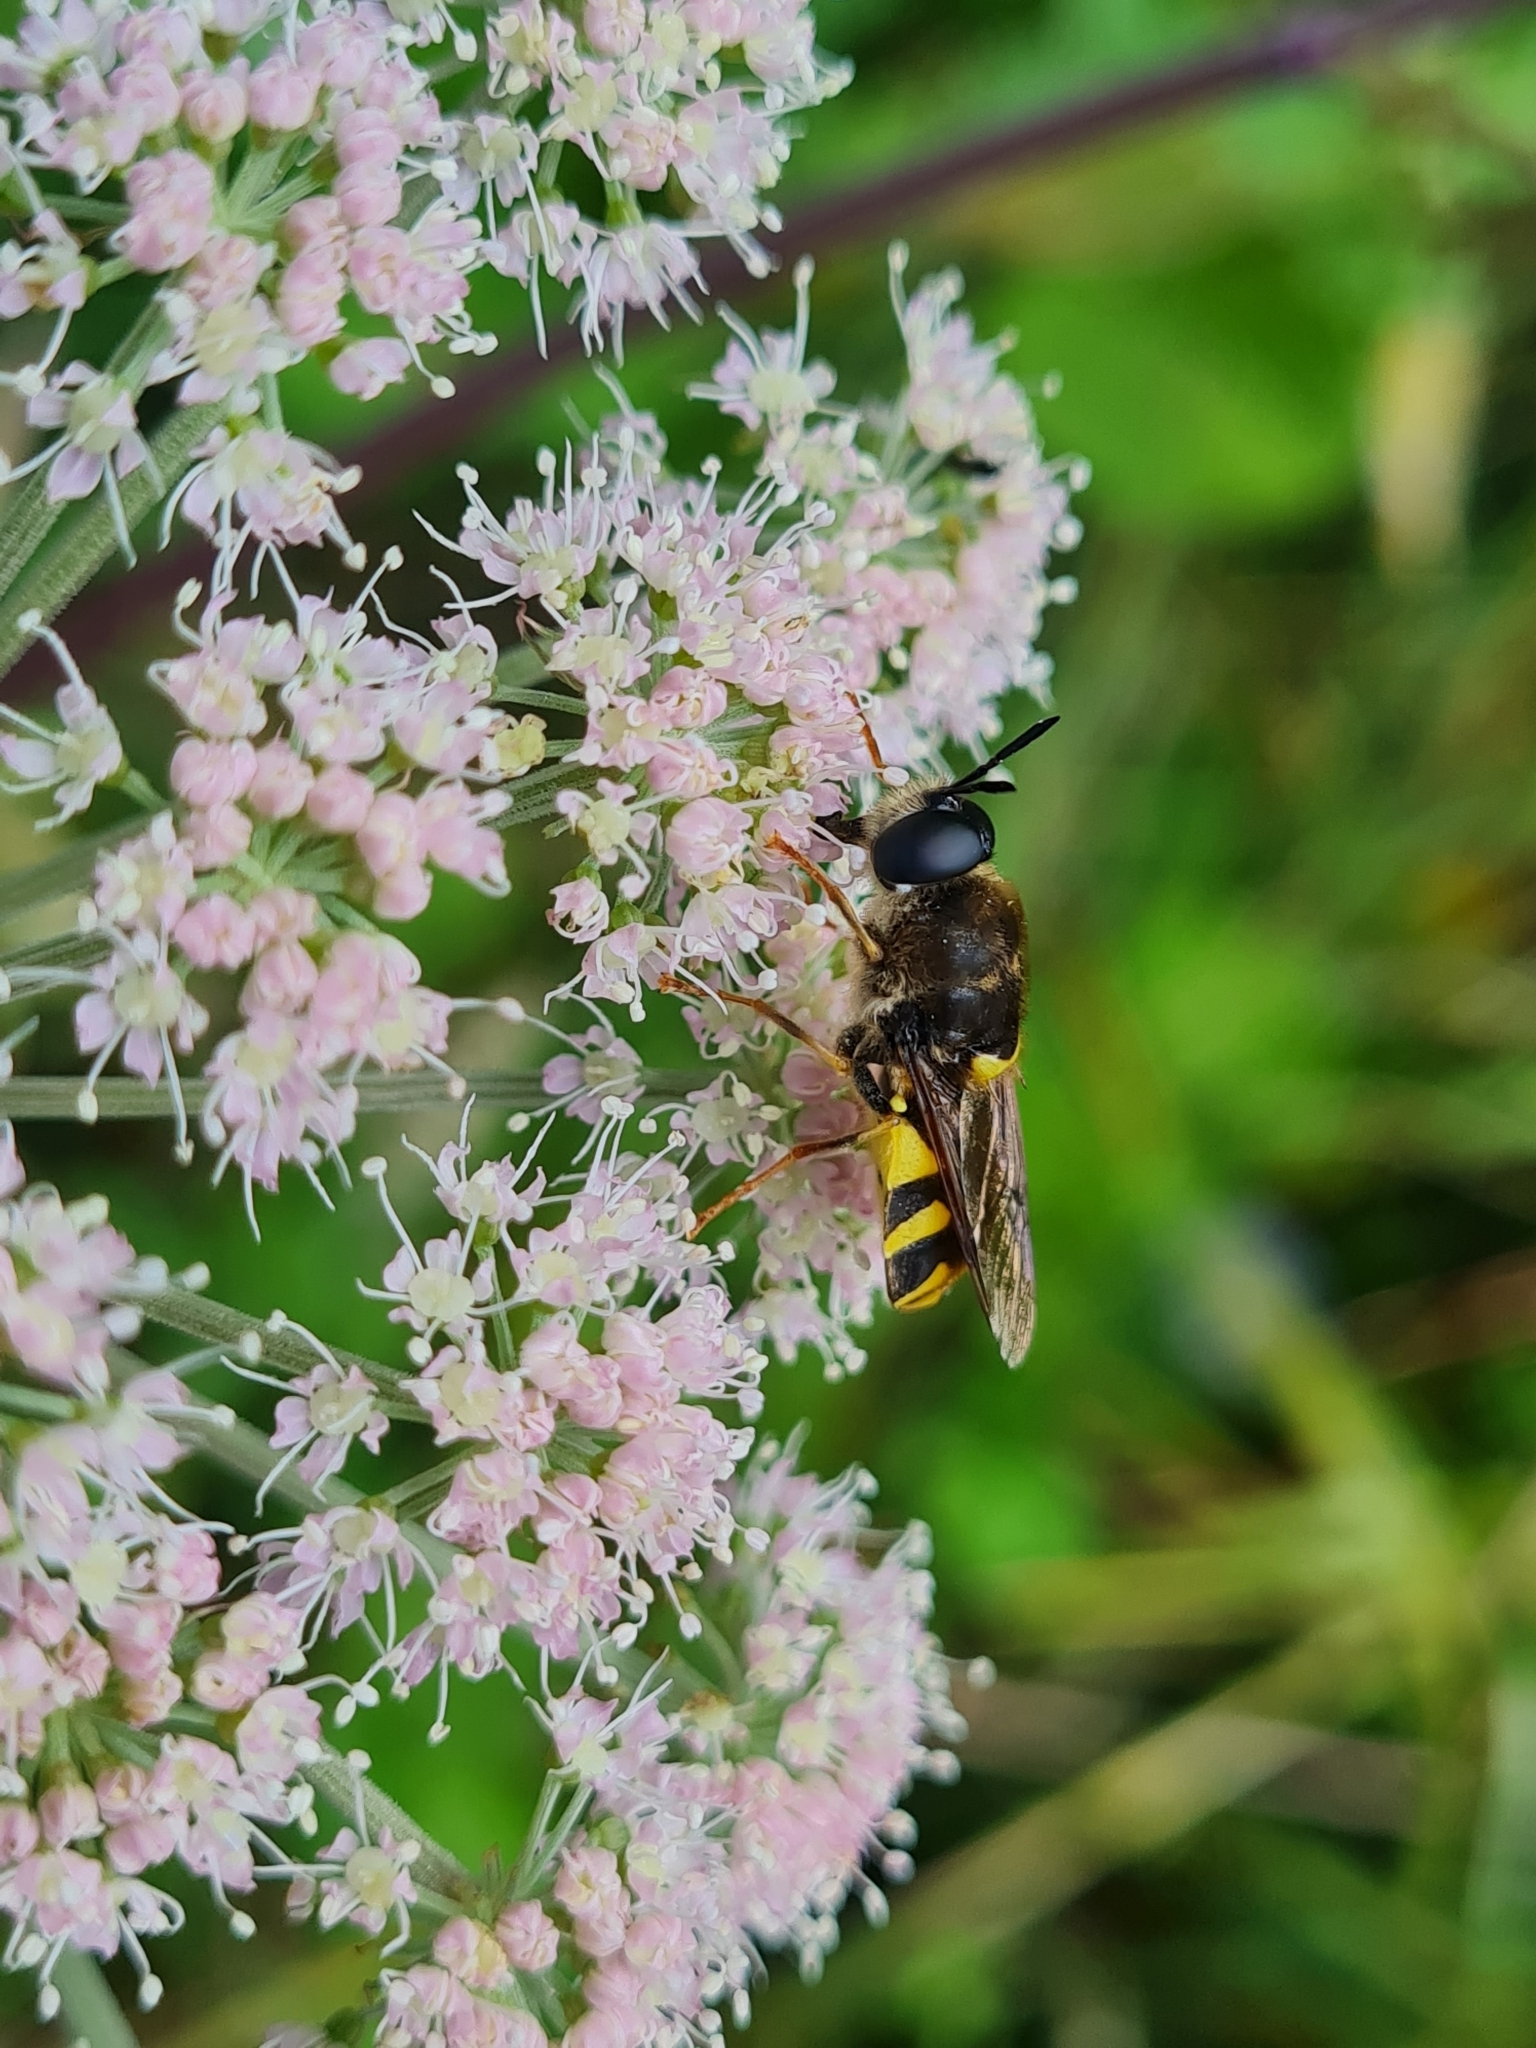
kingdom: Animalia
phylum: Arthropoda
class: Insecta
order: Diptera
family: Stratiomyidae
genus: Stratiomys
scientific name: Stratiomys potamida
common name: Banded general
